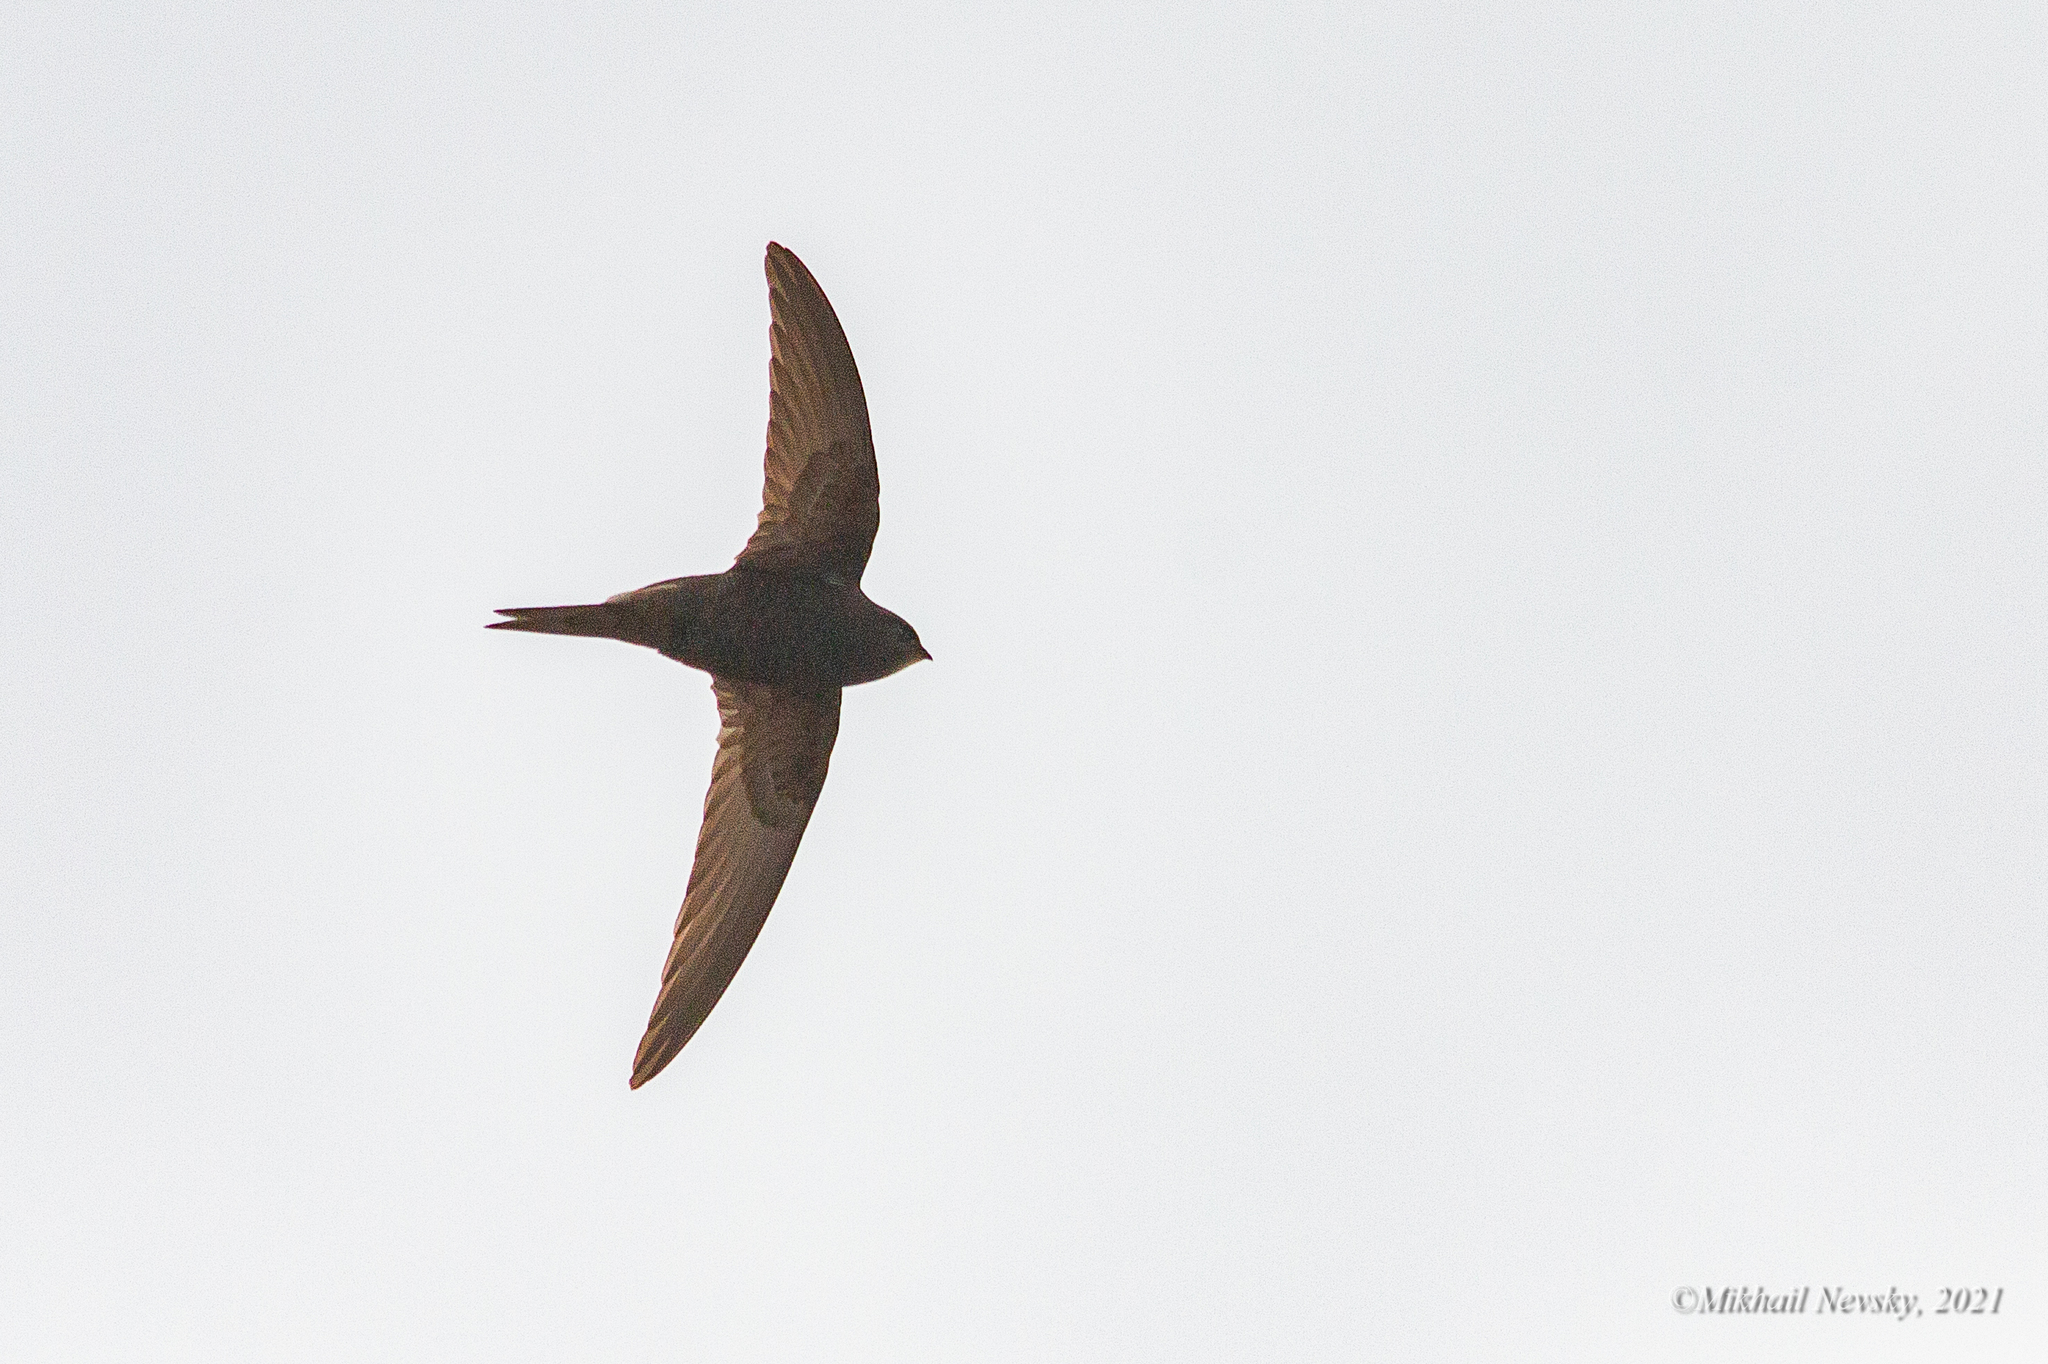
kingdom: Animalia
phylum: Chordata
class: Aves
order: Apodiformes
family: Apodidae
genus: Apus
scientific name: Apus apus
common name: Common swift
